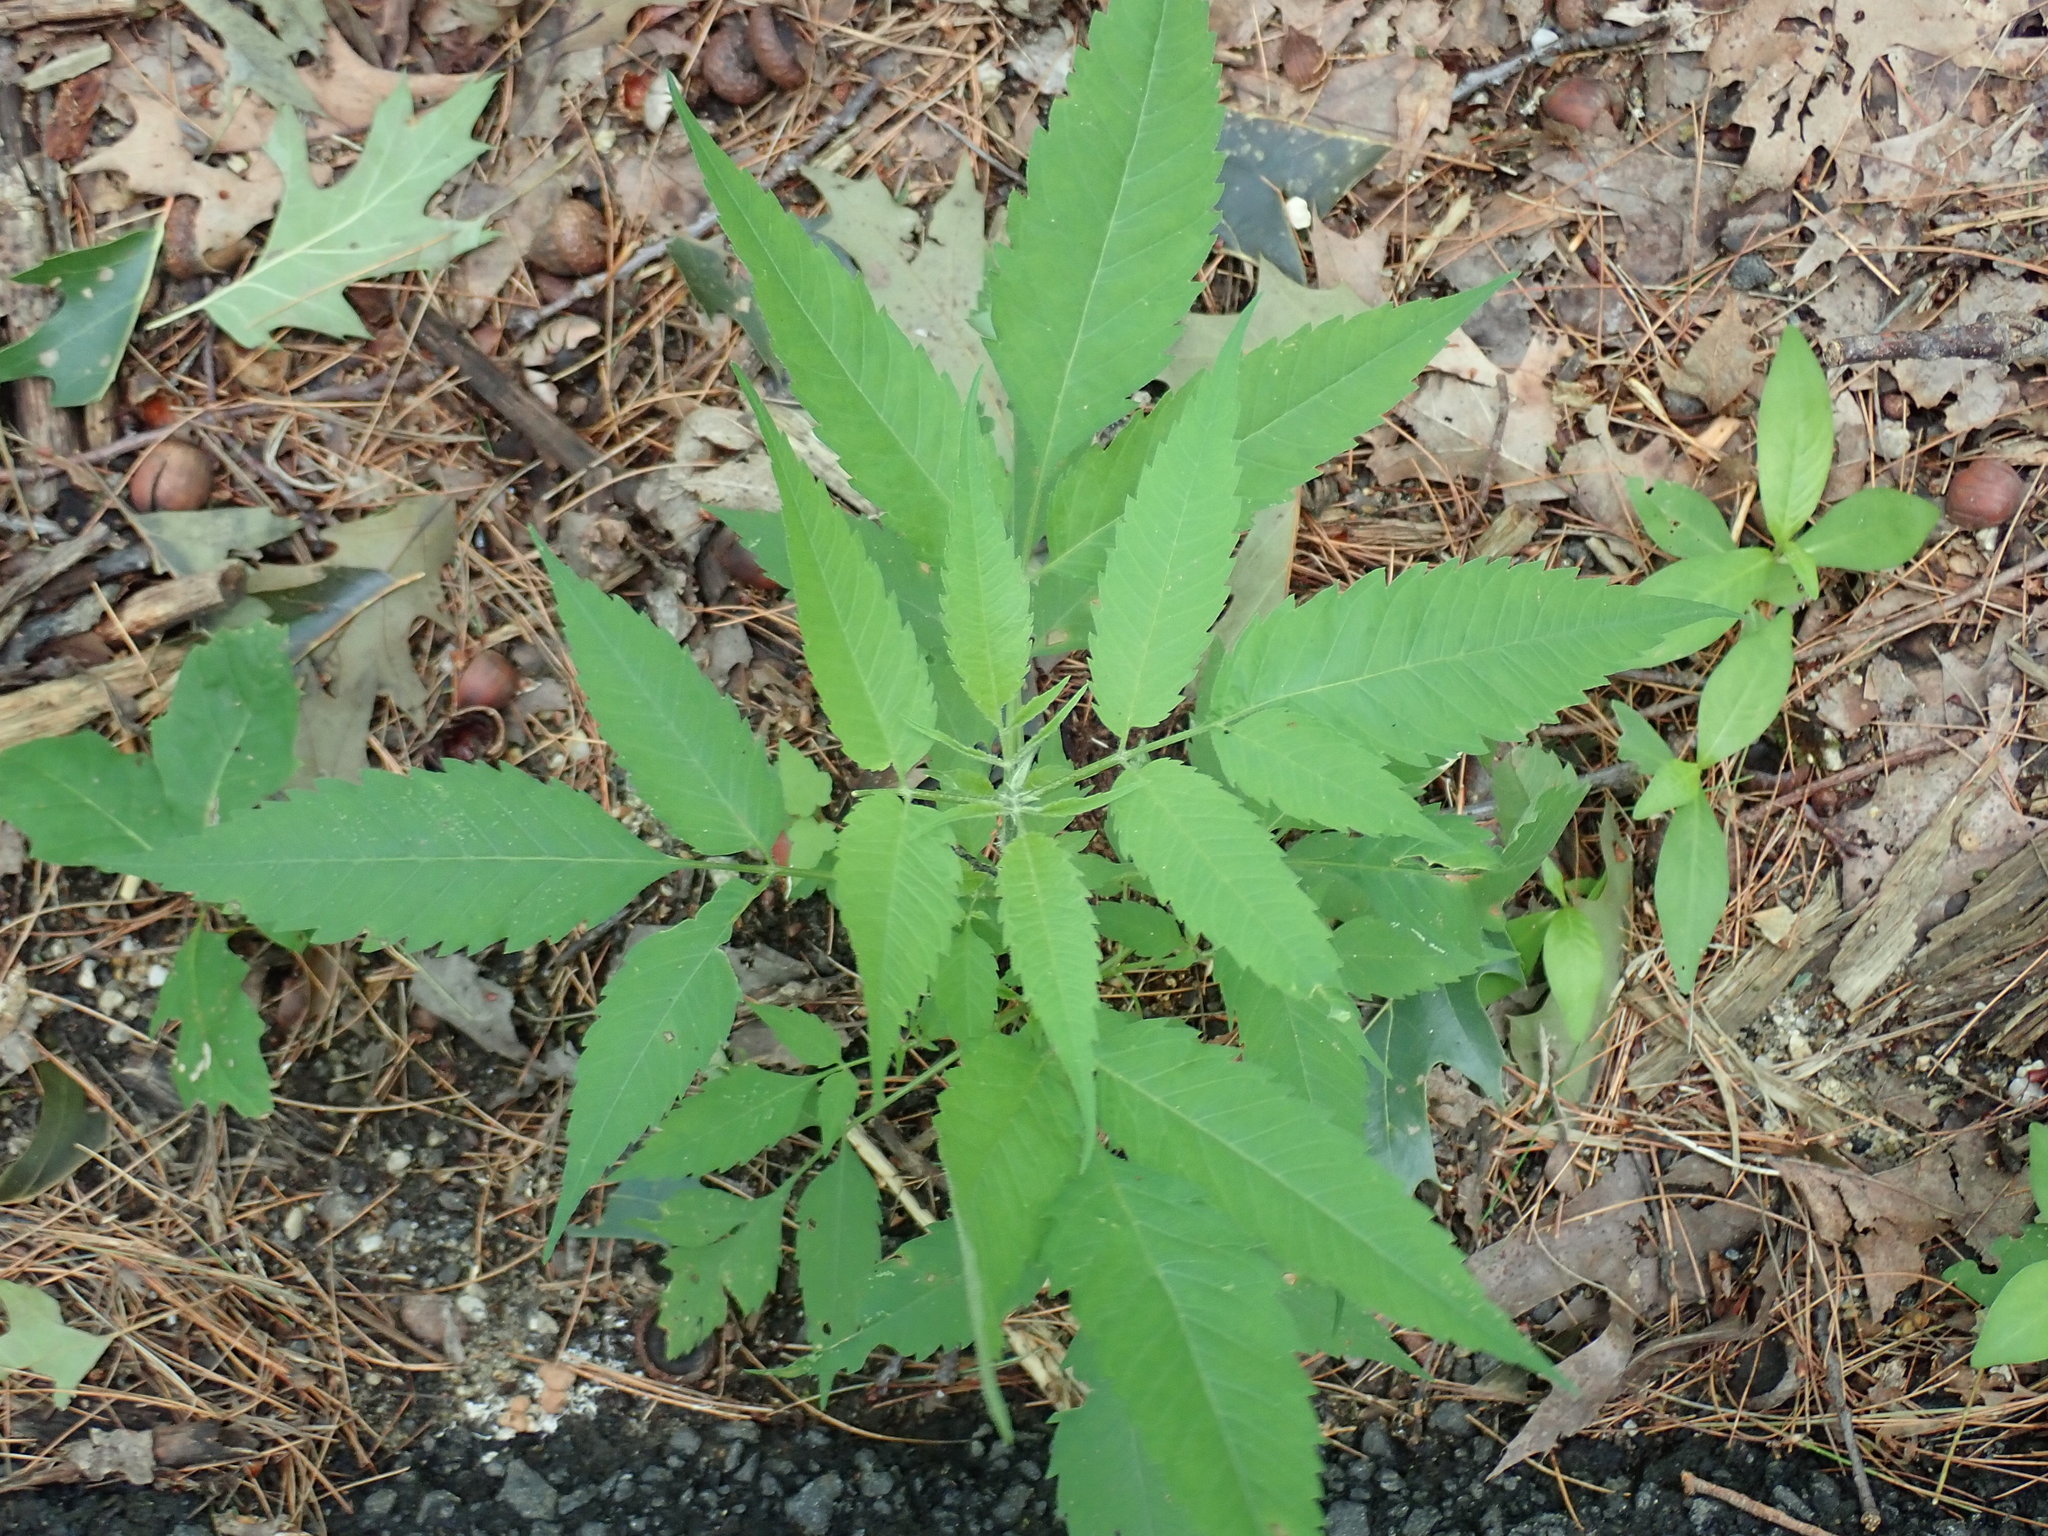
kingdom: Plantae
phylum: Tracheophyta
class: Magnoliopsida
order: Asterales
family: Asteraceae
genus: Bidens
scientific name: Bidens
